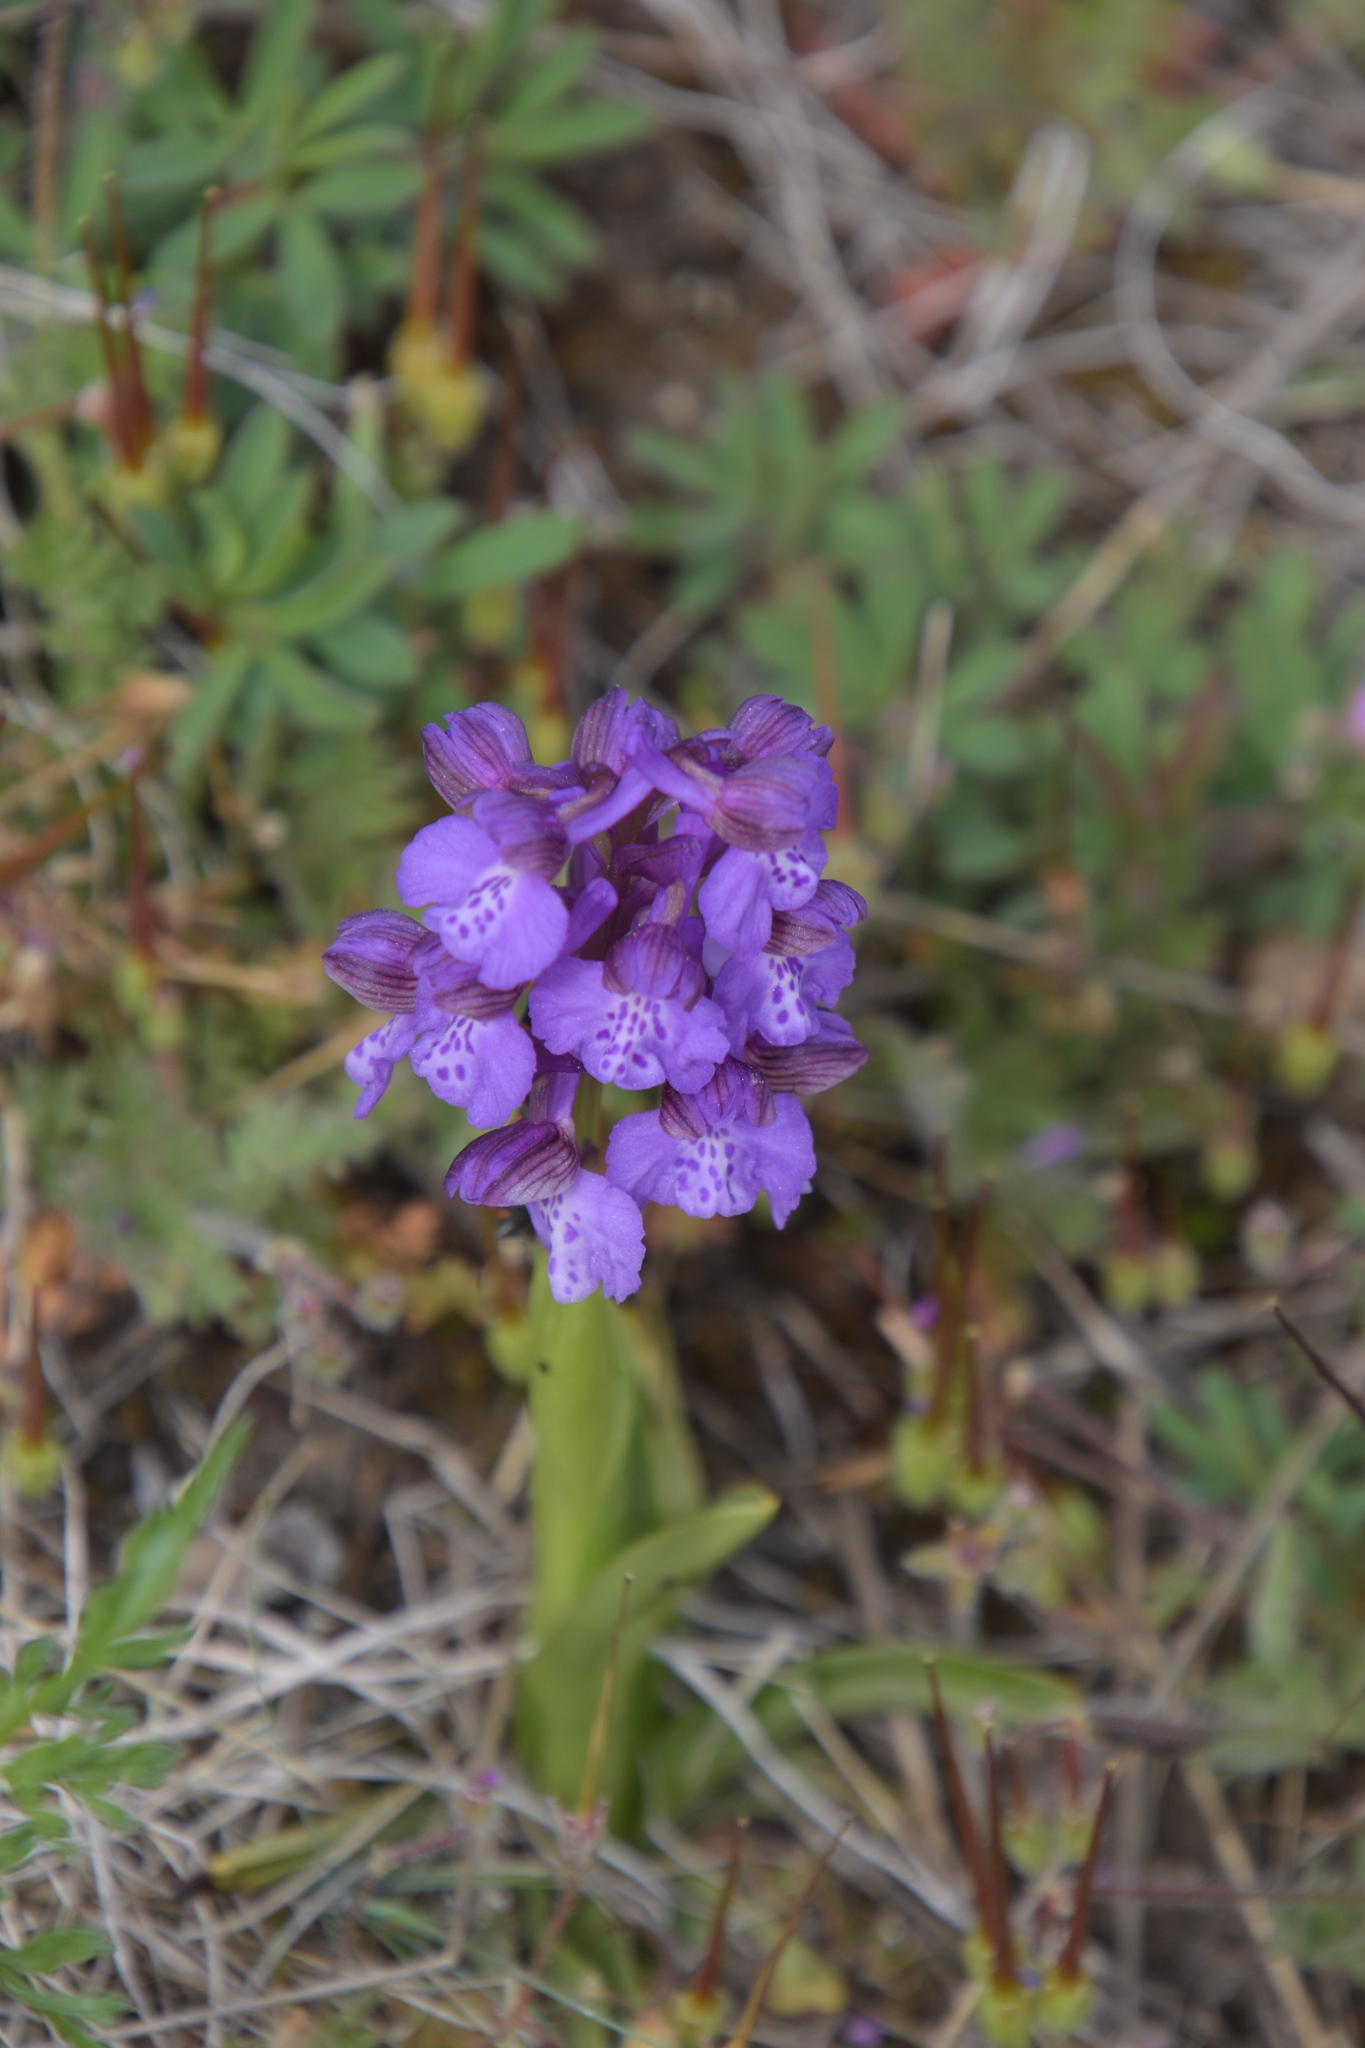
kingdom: Plantae
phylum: Tracheophyta
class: Liliopsida
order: Asparagales
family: Orchidaceae
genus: Anacamptis
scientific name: Anacamptis morio
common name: Green-winged orchid
